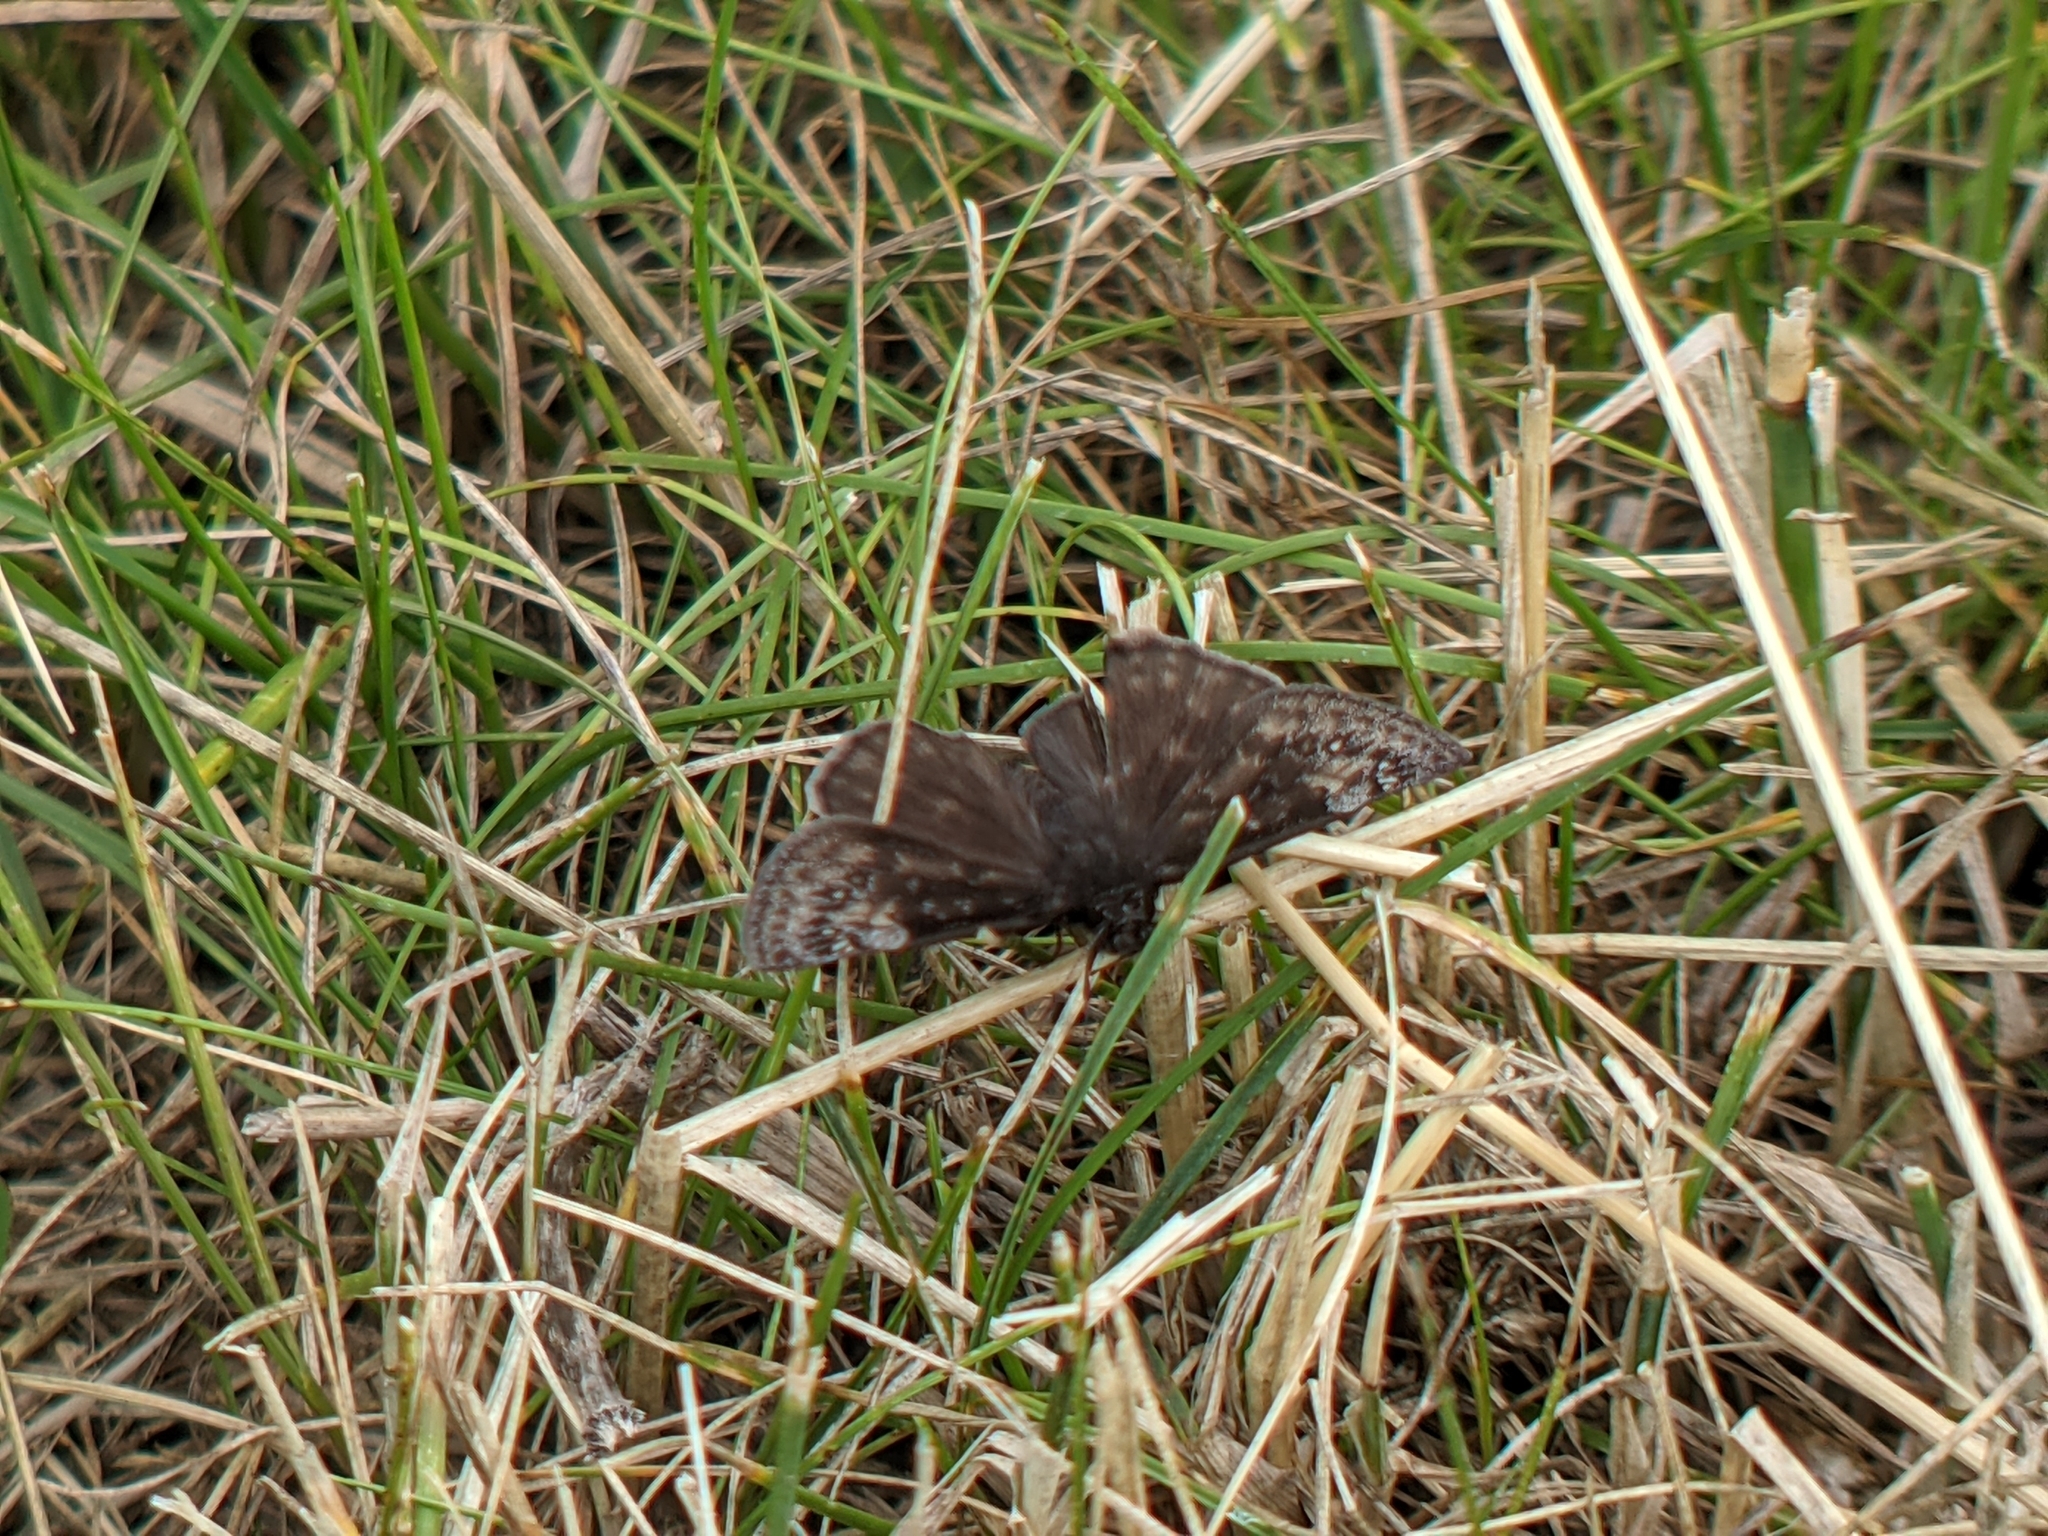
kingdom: Animalia
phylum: Arthropoda
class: Insecta
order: Lepidoptera
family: Hesperiidae
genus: Erynnis
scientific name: Erynnis baptisiae
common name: Wild indigo duskywing
